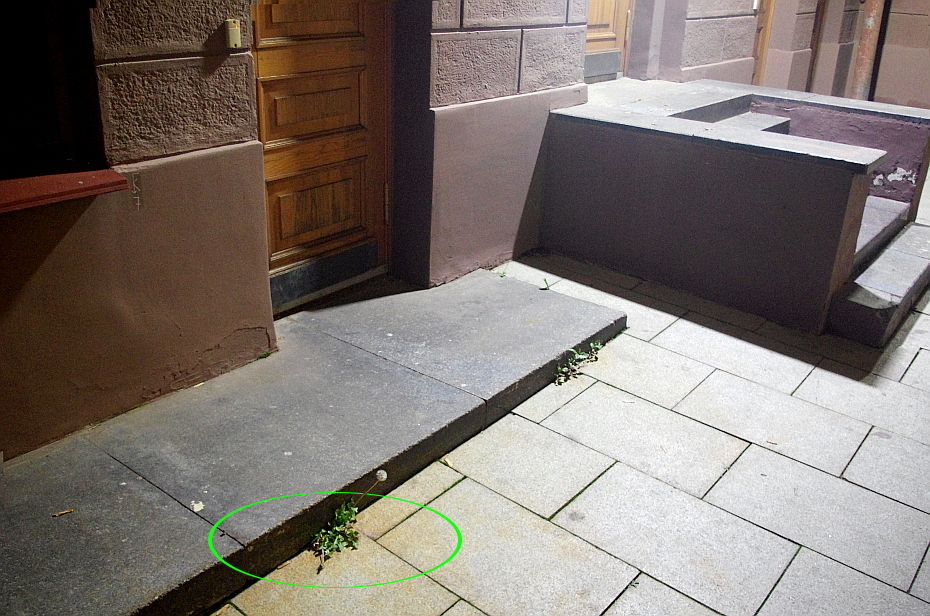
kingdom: Plantae
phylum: Tracheophyta
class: Magnoliopsida
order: Asterales
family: Asteraceae
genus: Taraxacum
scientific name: Taraxacum officinale
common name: Common dandelion
